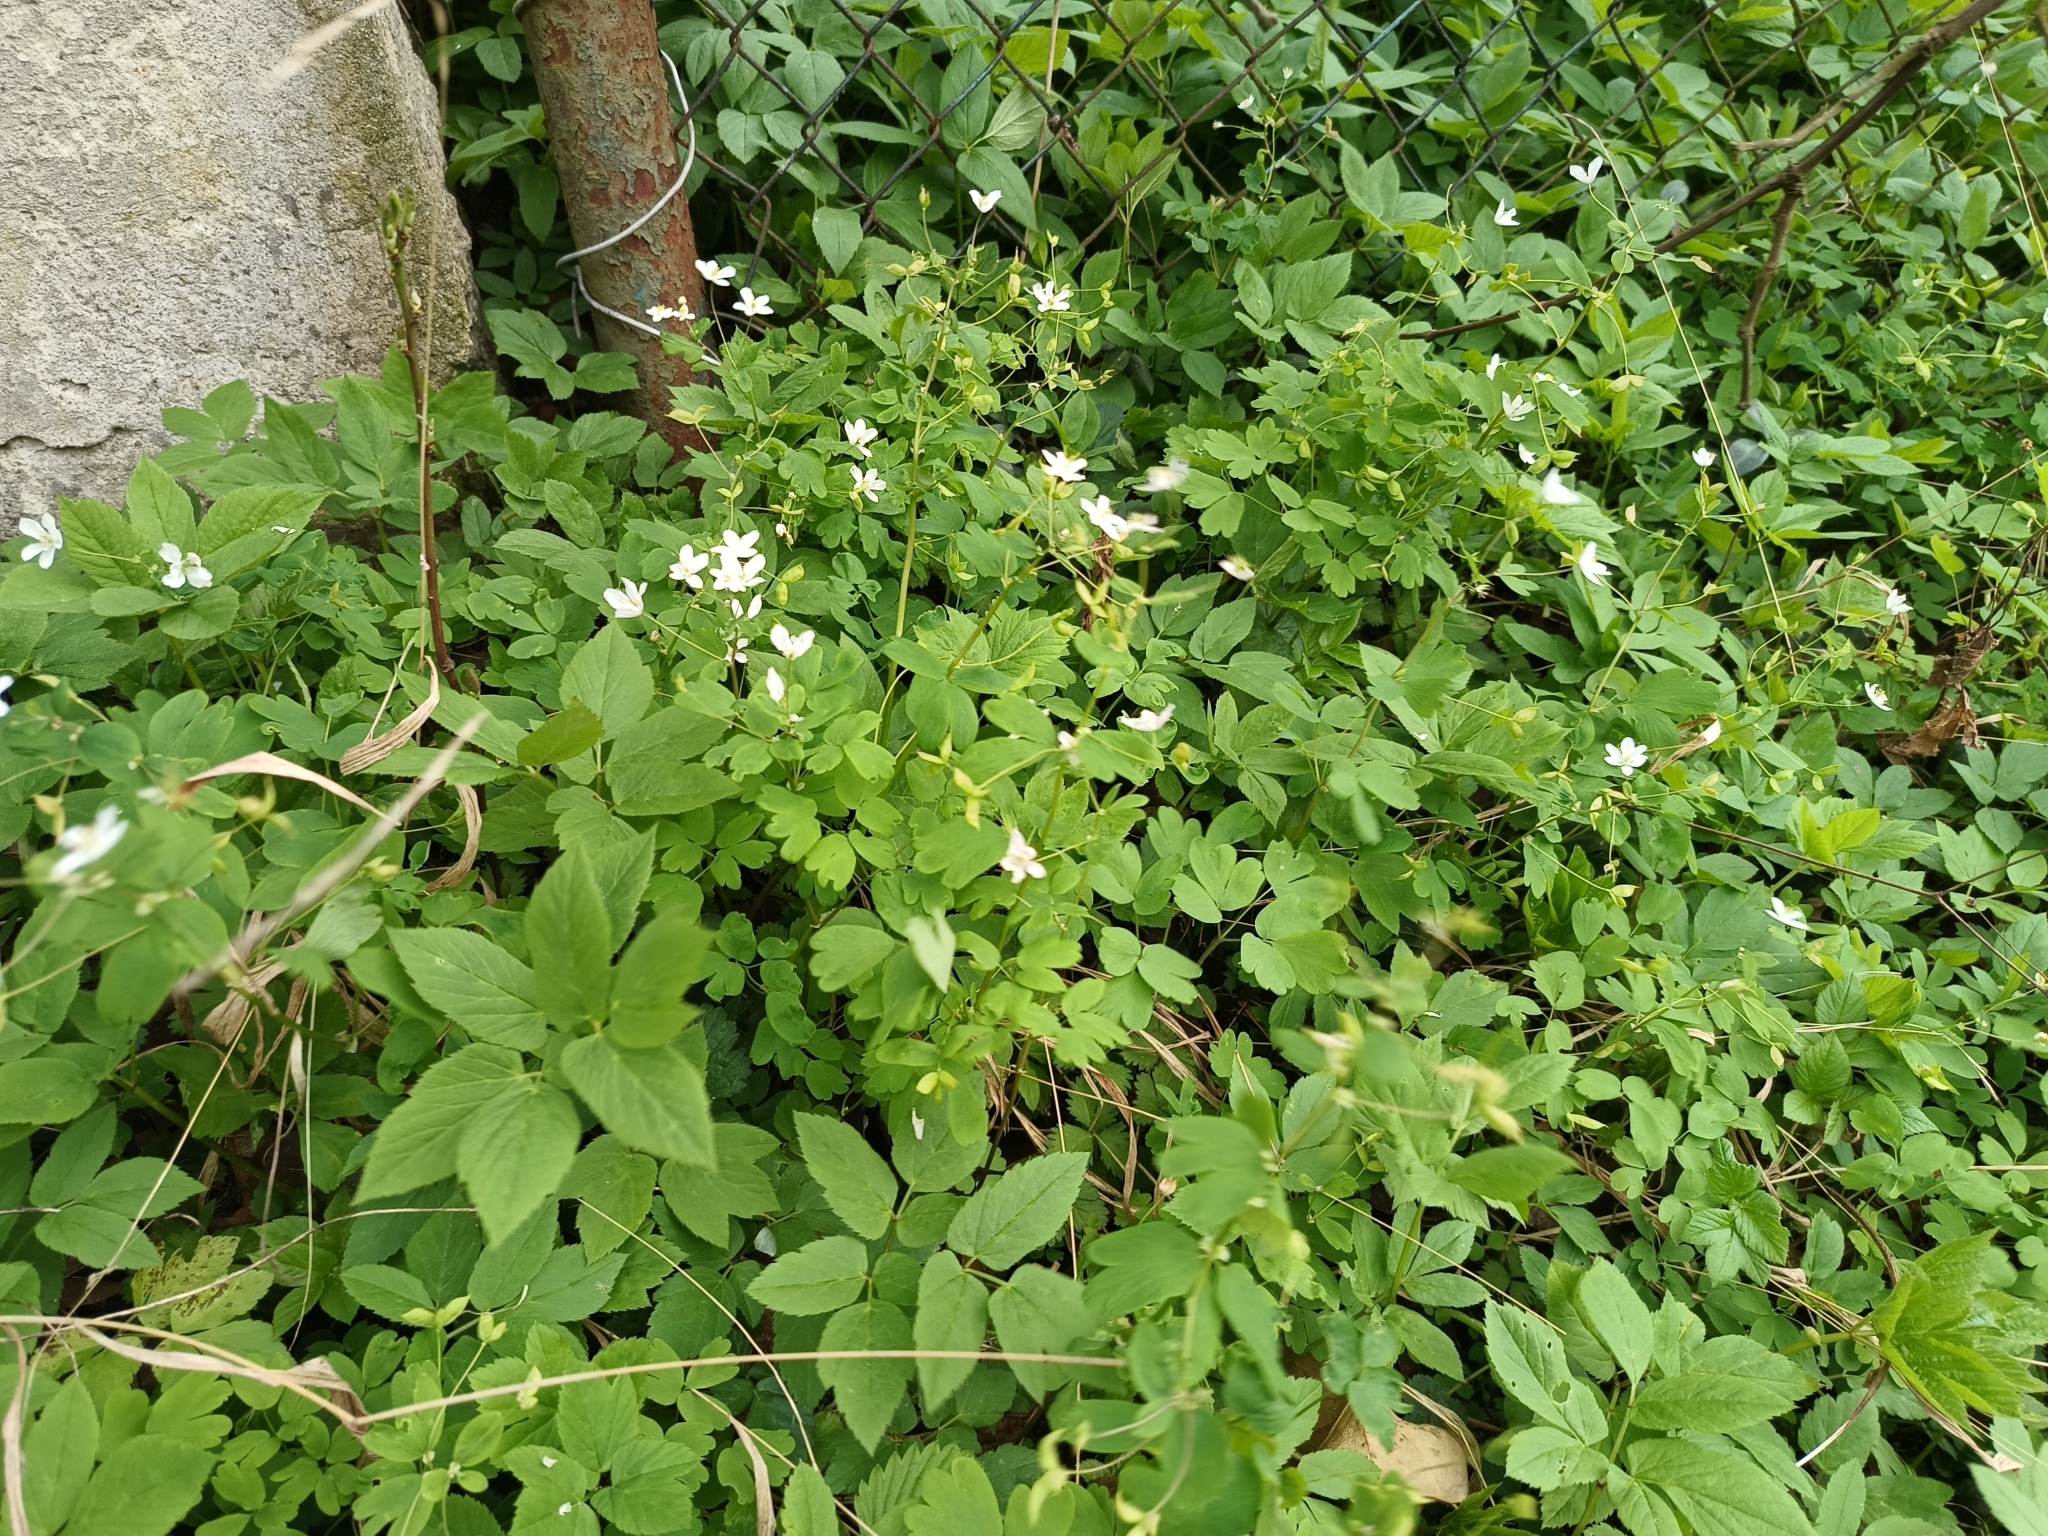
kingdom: Plantae
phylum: Tracheophyta
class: Magnoliopsida
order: Ranunculales
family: Ranunculaceae
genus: Isopyrum
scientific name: Isopyrum thalictroides
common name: Isopyrum
